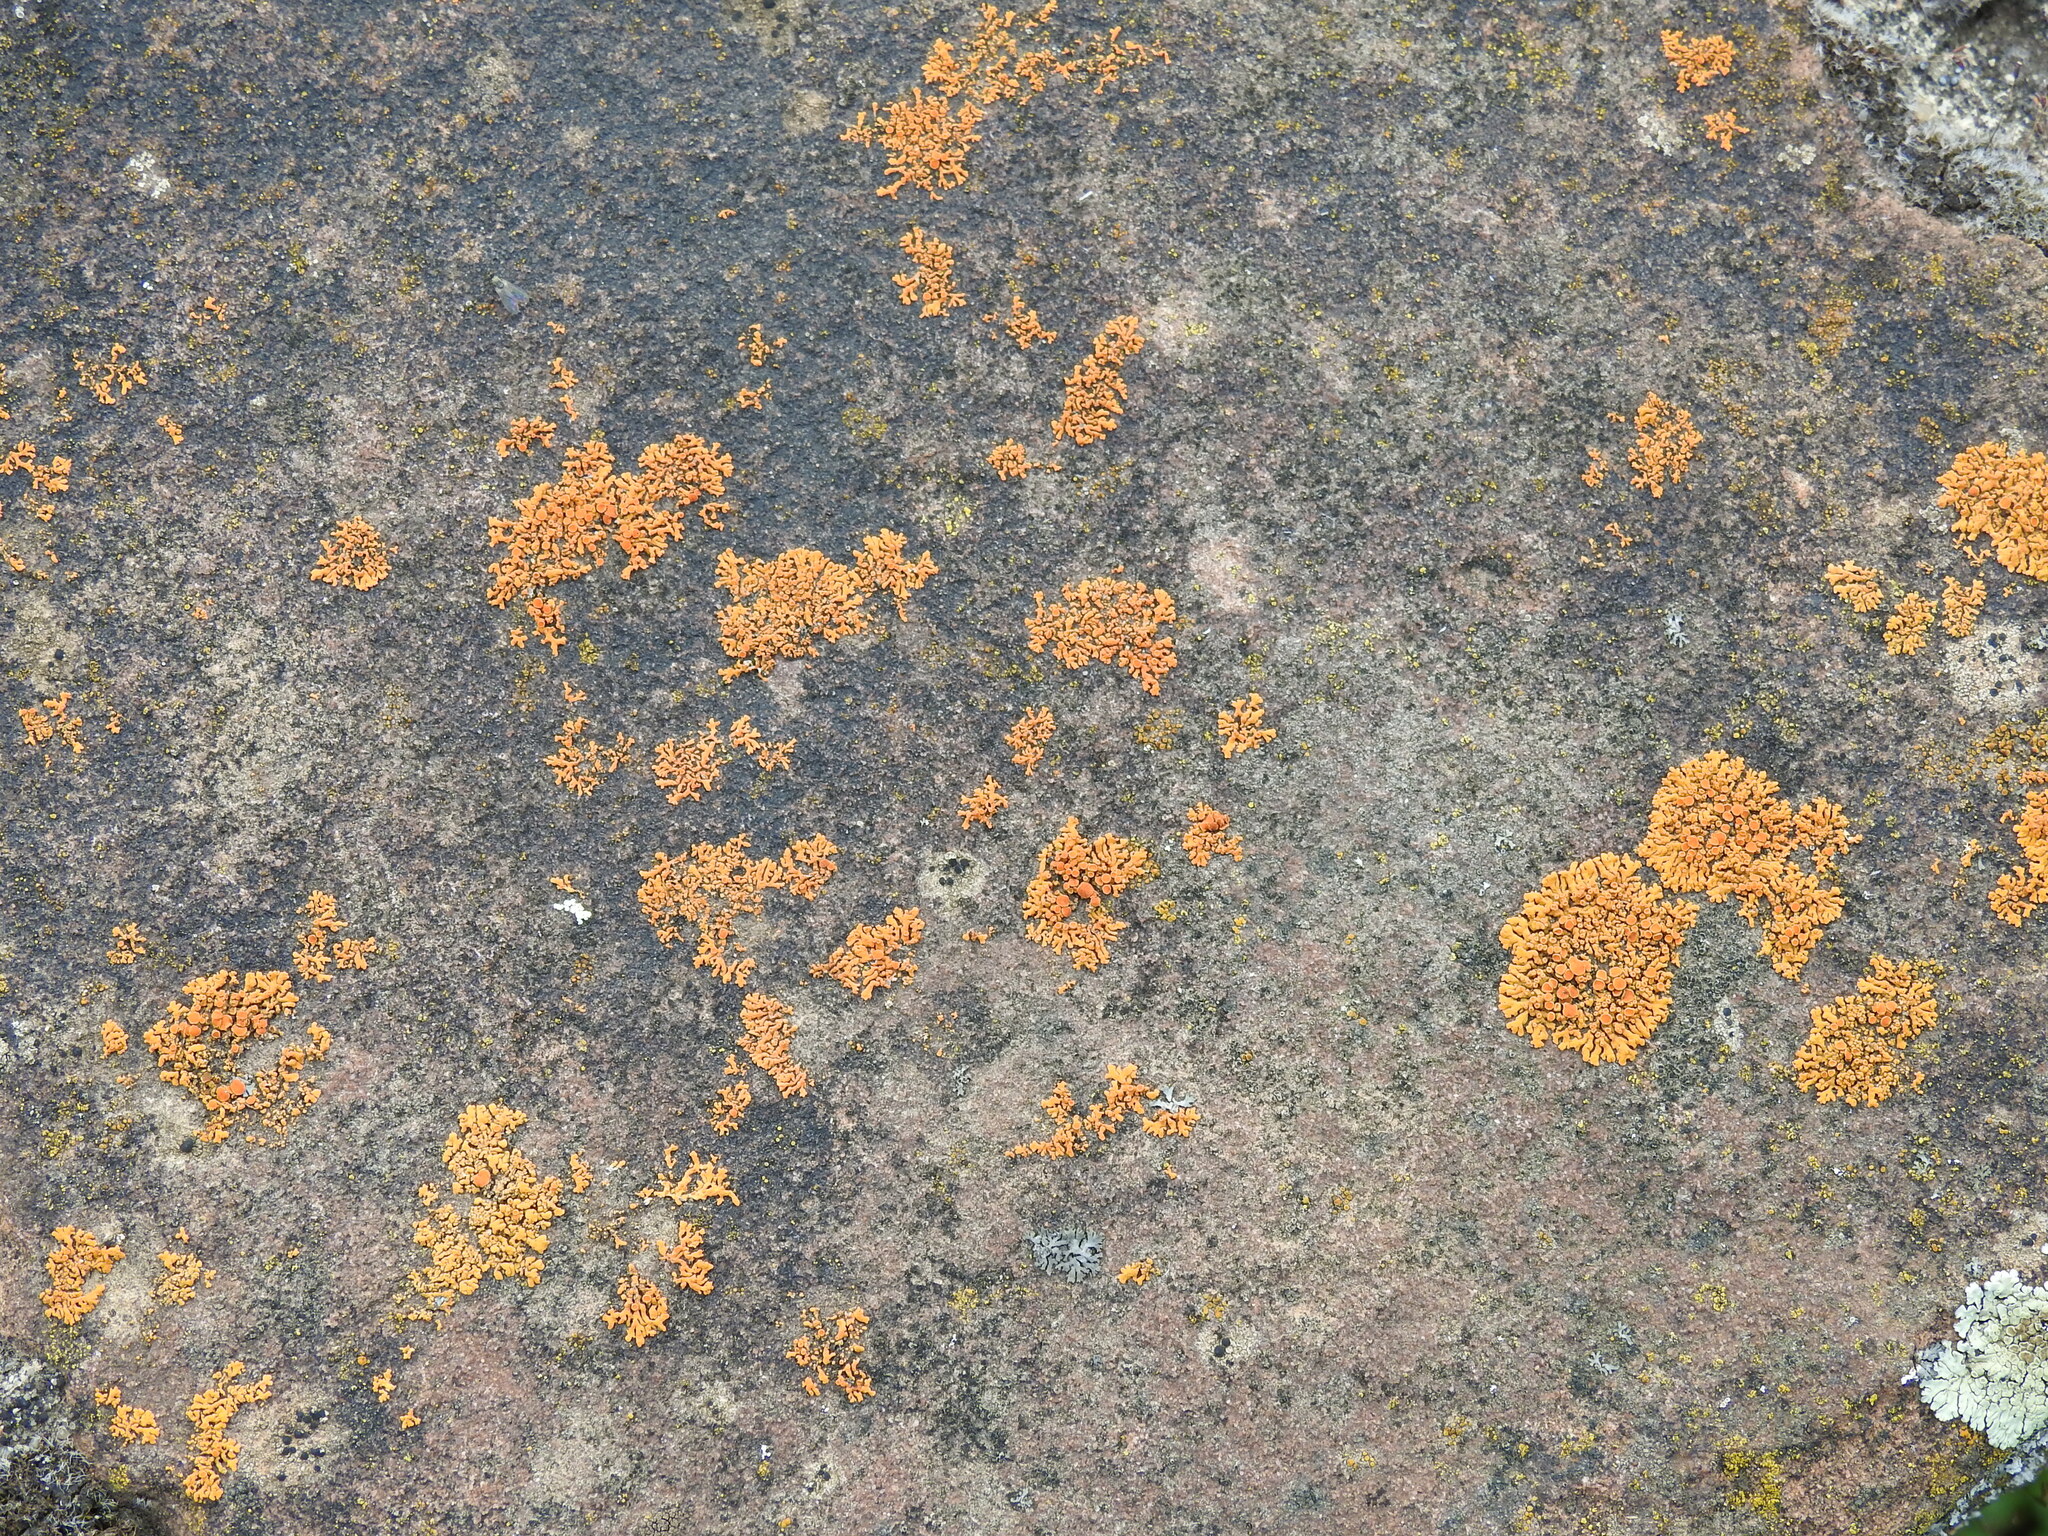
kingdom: Fungi
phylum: Ascomycota
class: Lecanoromycetes
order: Teloschistales
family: Teloschistaceae
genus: Xanthoria
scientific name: Xanthoria elegans
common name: Elegant sunburst lichen
